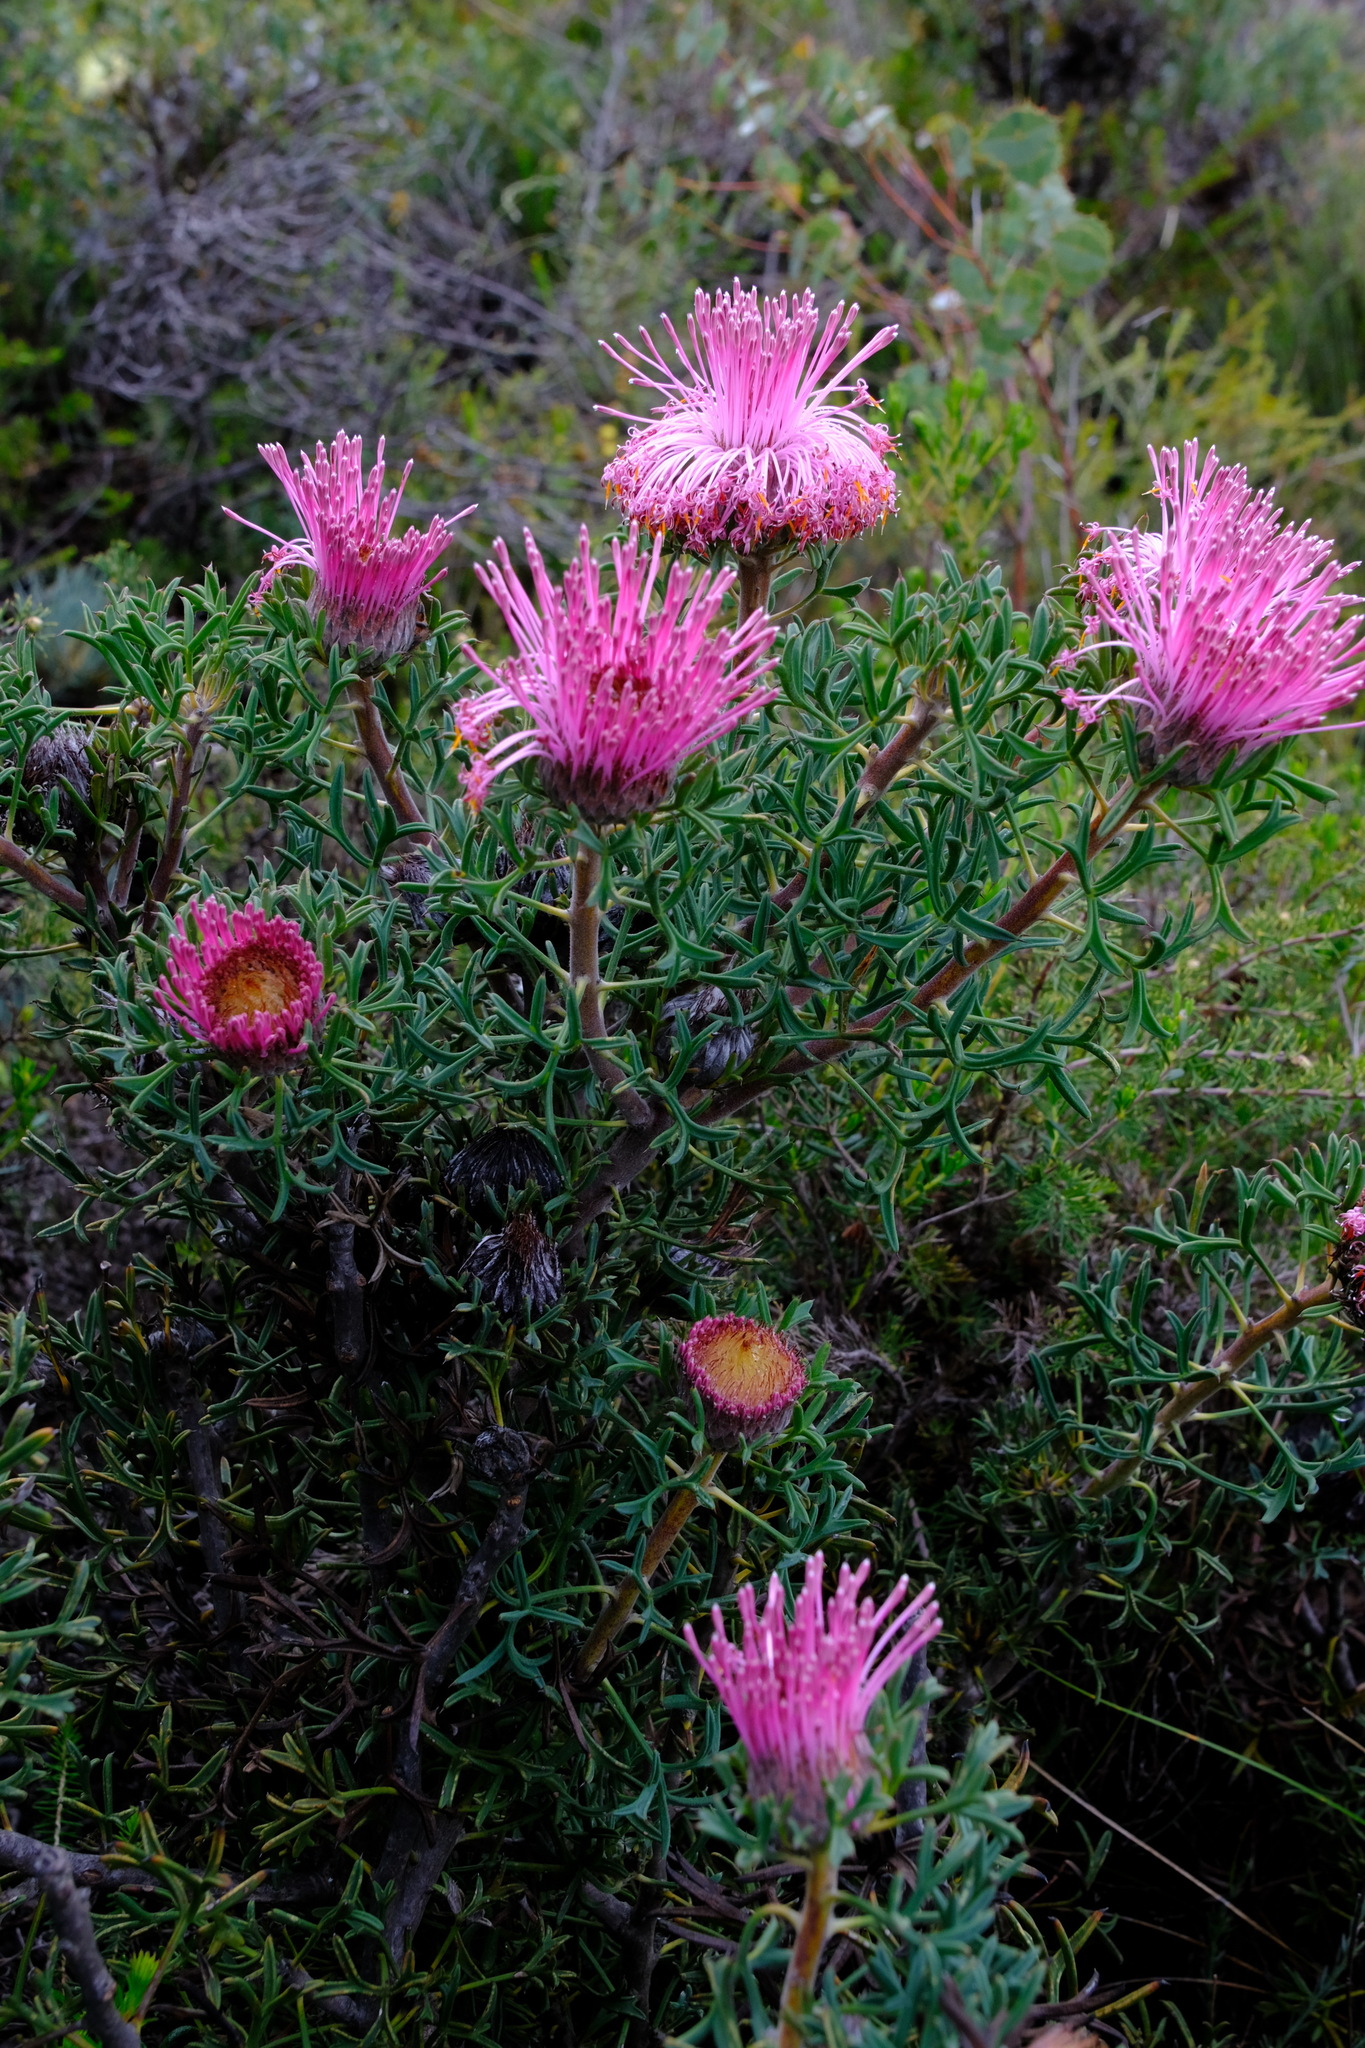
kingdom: Plantae
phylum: Tracheophyta
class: Magnoliopsida
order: Proteales
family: Proteaceae
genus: Isopogon
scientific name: Isopogon dubius
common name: Pincushion-coneflower
